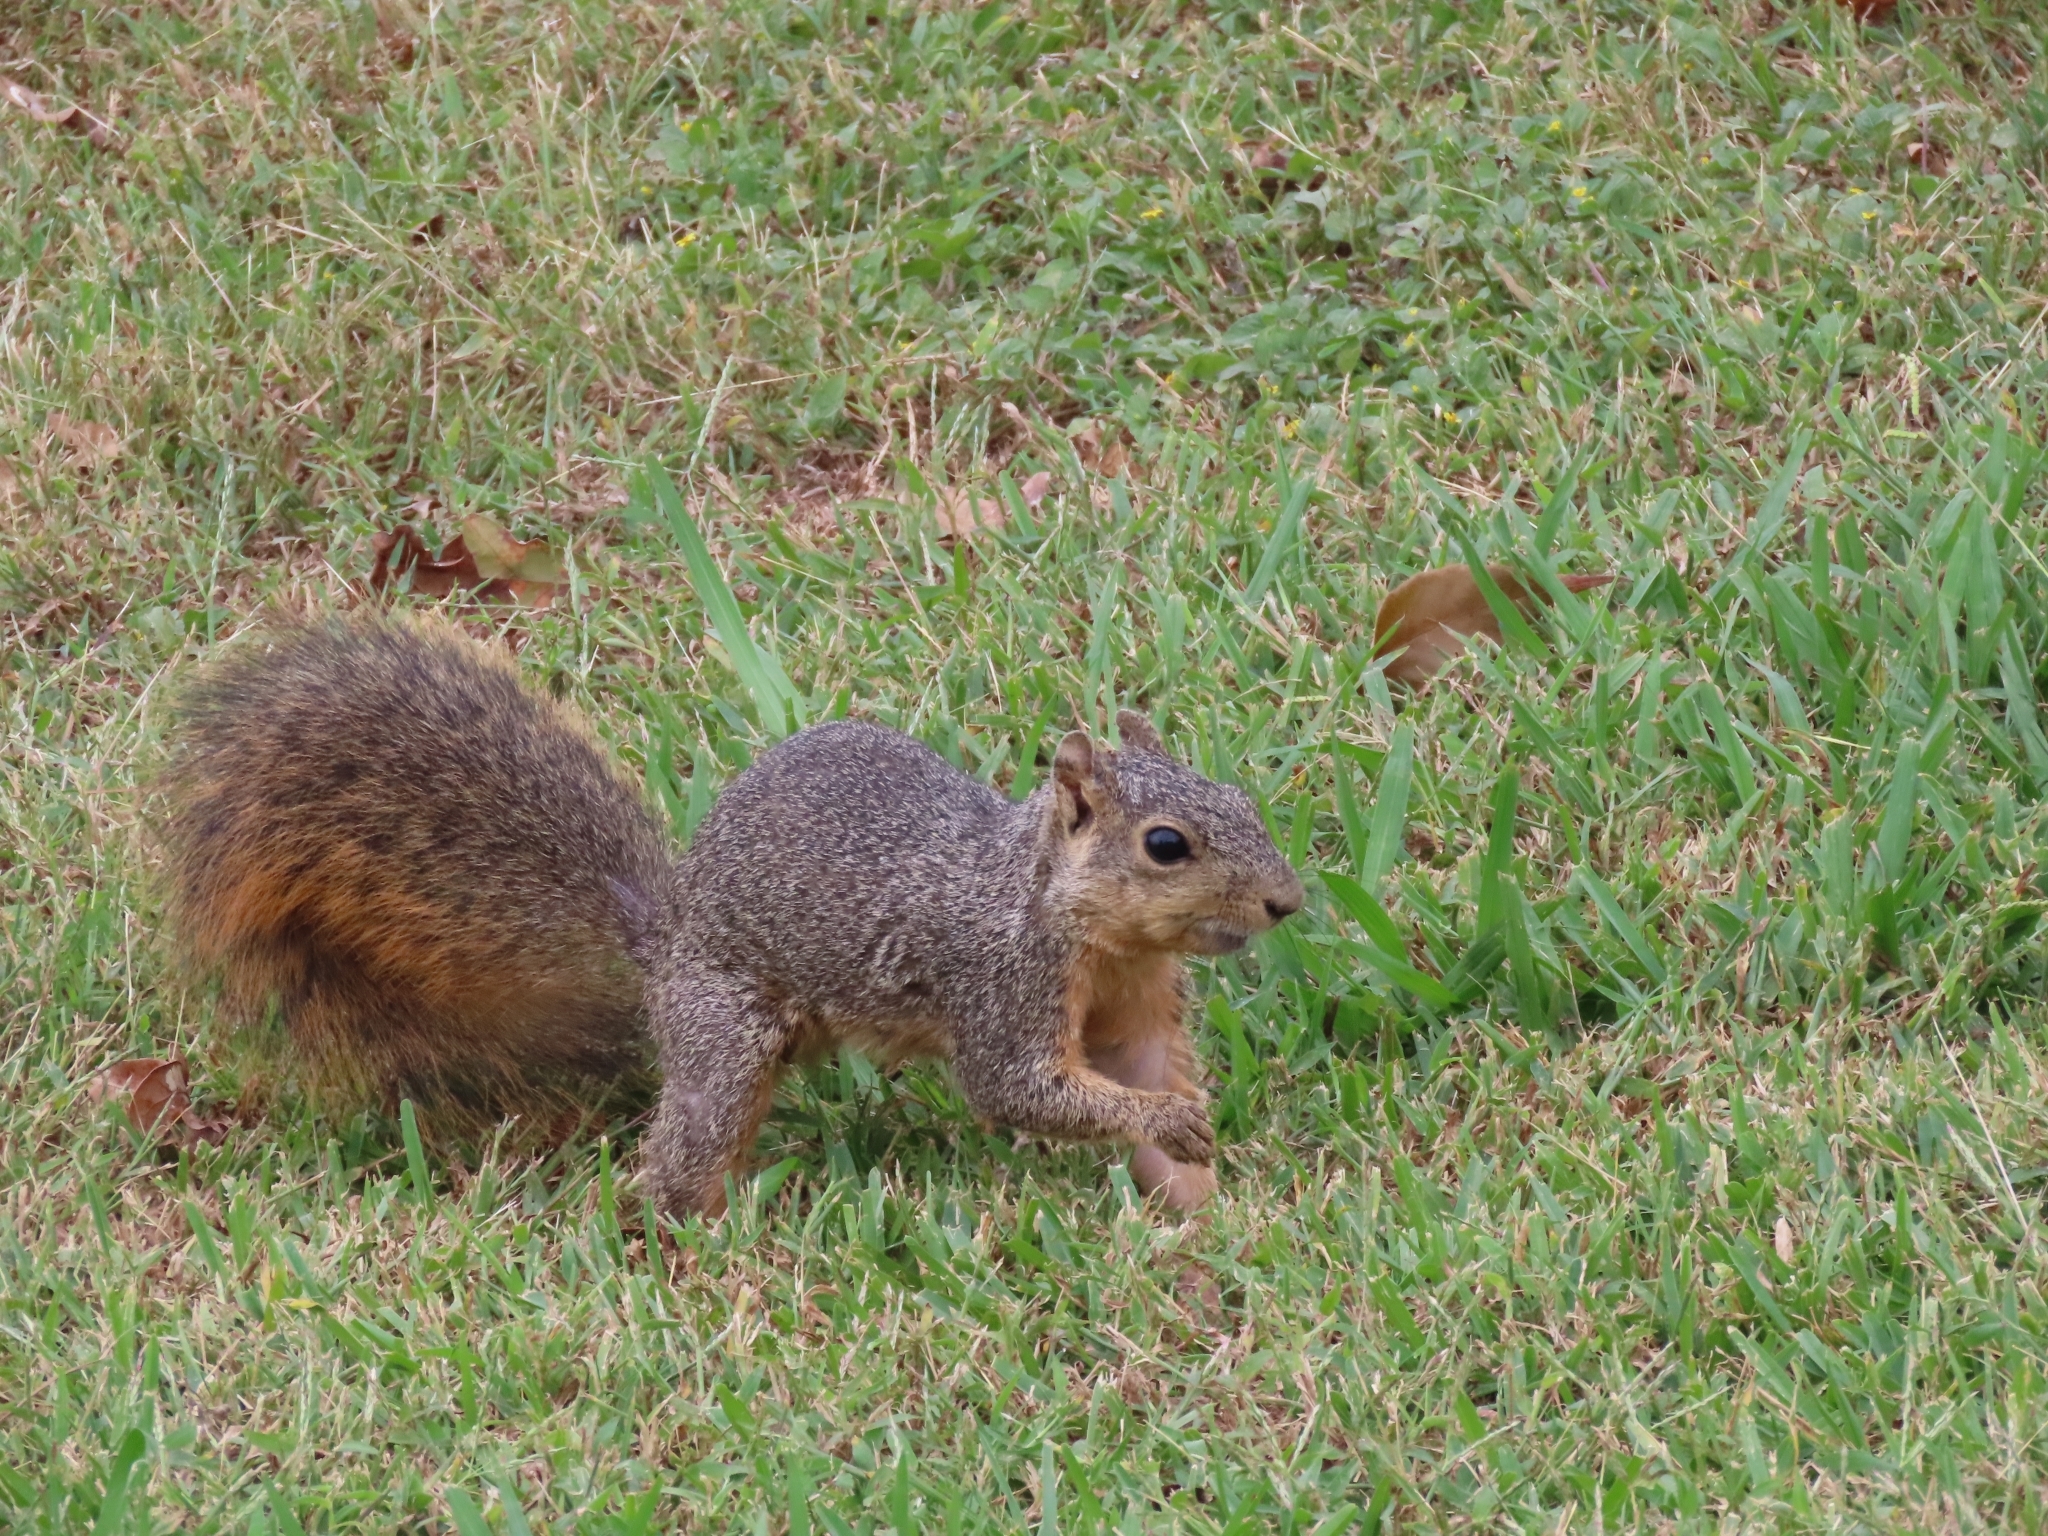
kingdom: Animalia
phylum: Chordata
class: Mammalia
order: Rodentia
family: Sciuridae
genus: Sciurus
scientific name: Sciurus niger
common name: Fox squirrel
